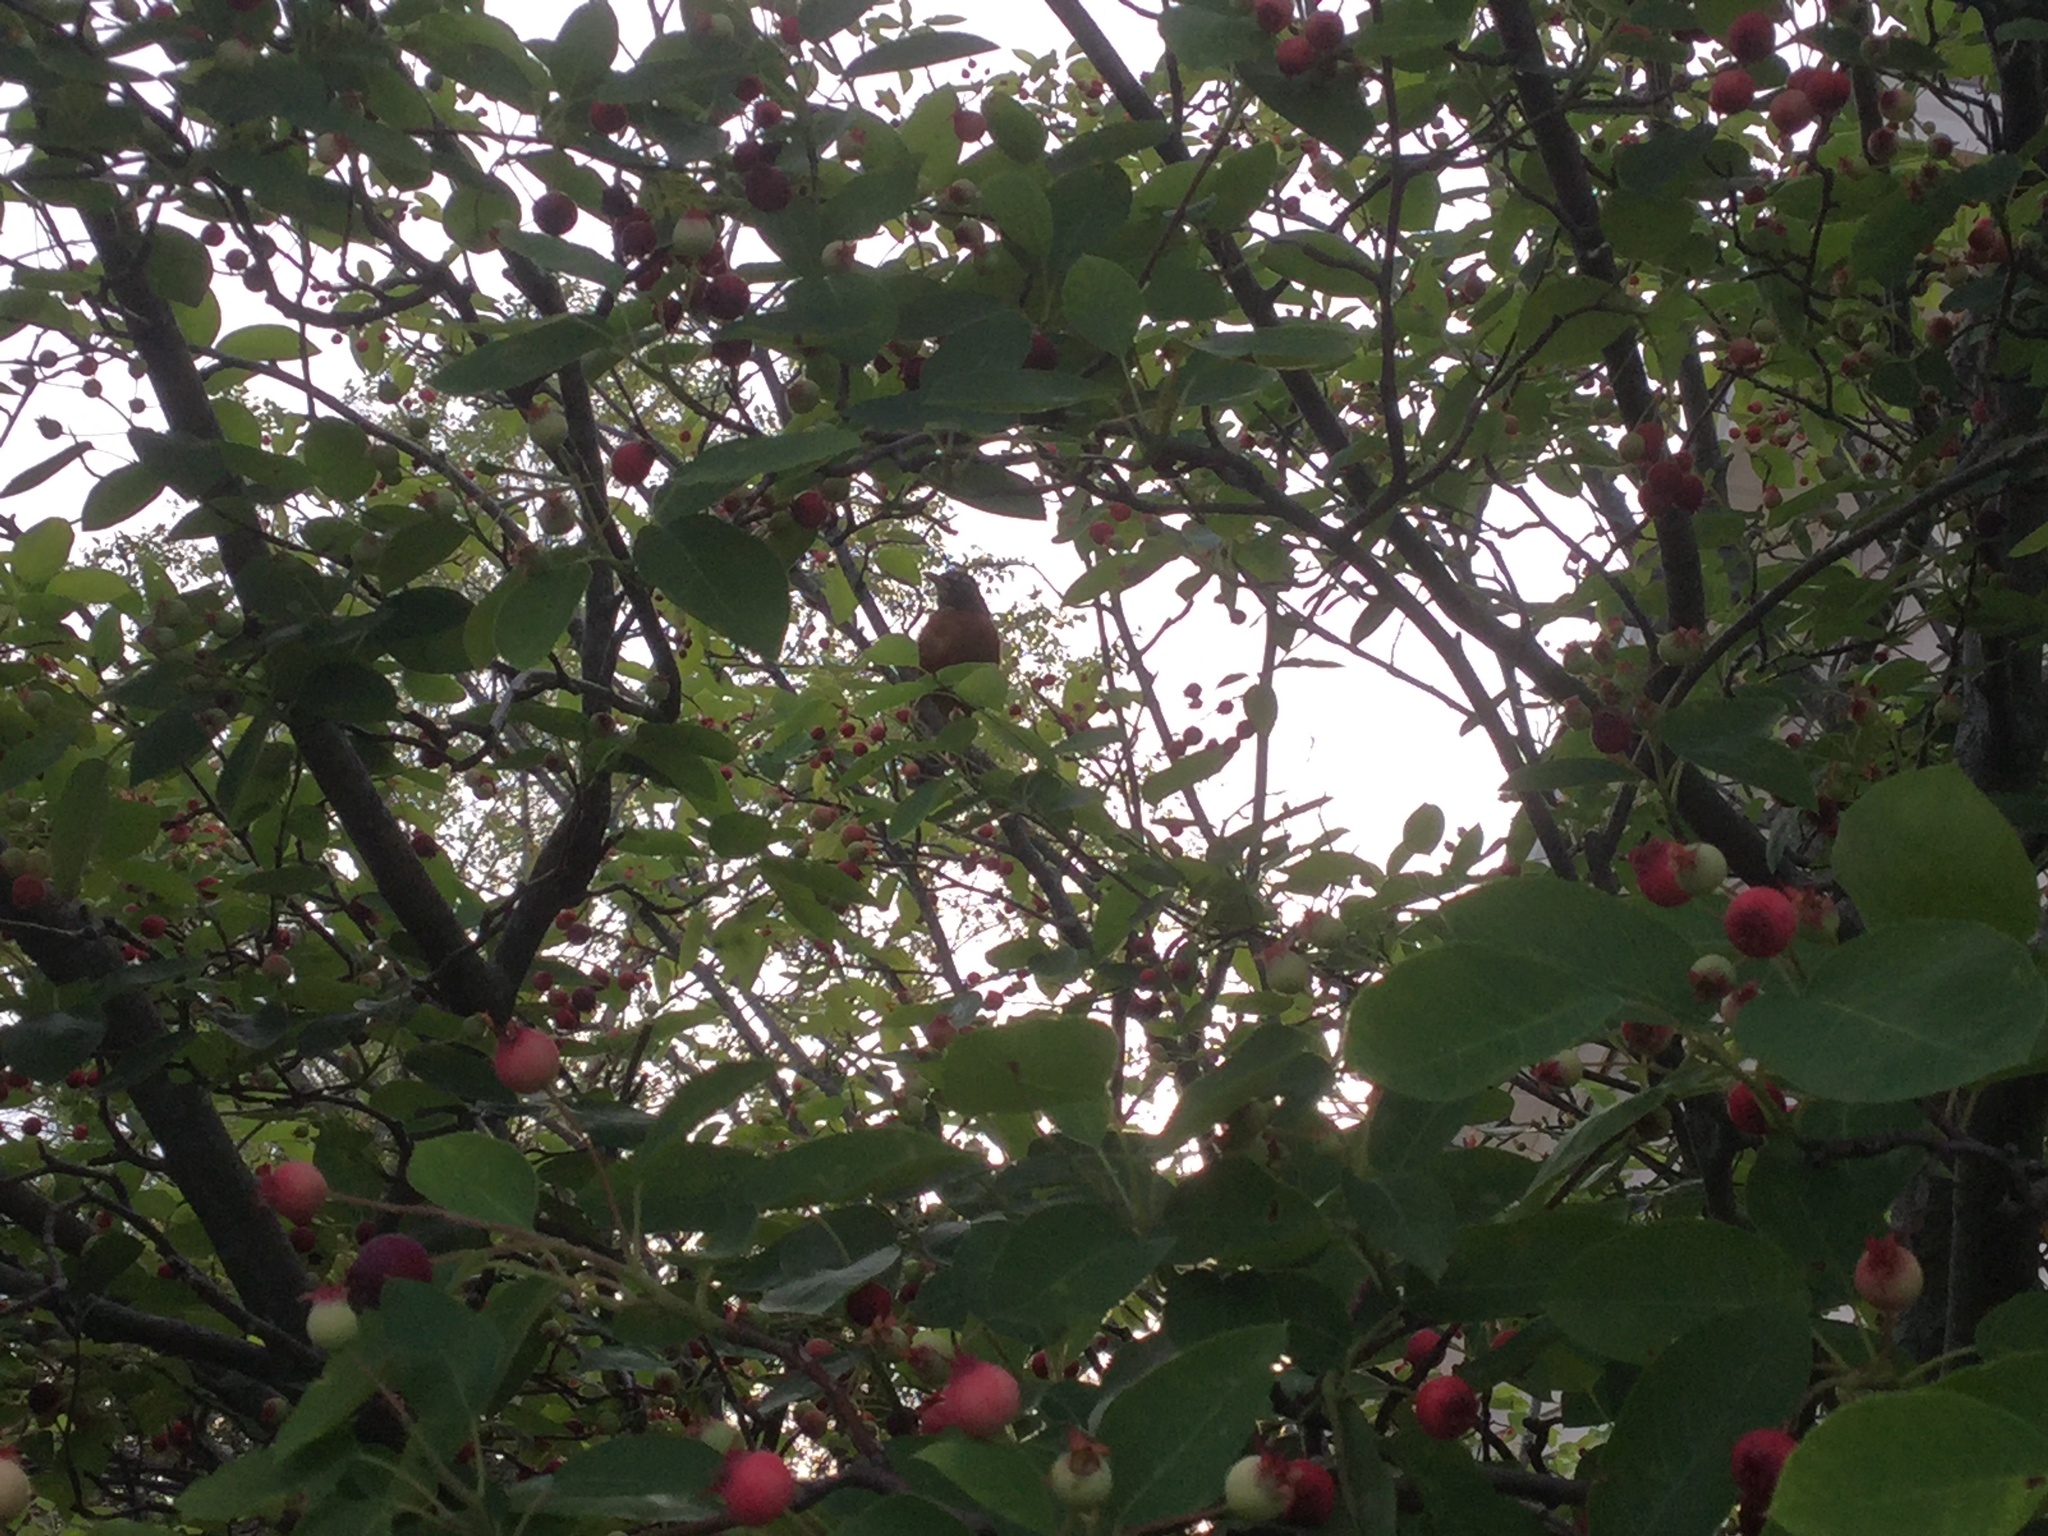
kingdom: Animalia
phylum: Chordata
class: Aves
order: Passeriformes
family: Turdidae
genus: Turdus
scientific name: Turdus migratorius
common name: American robin
